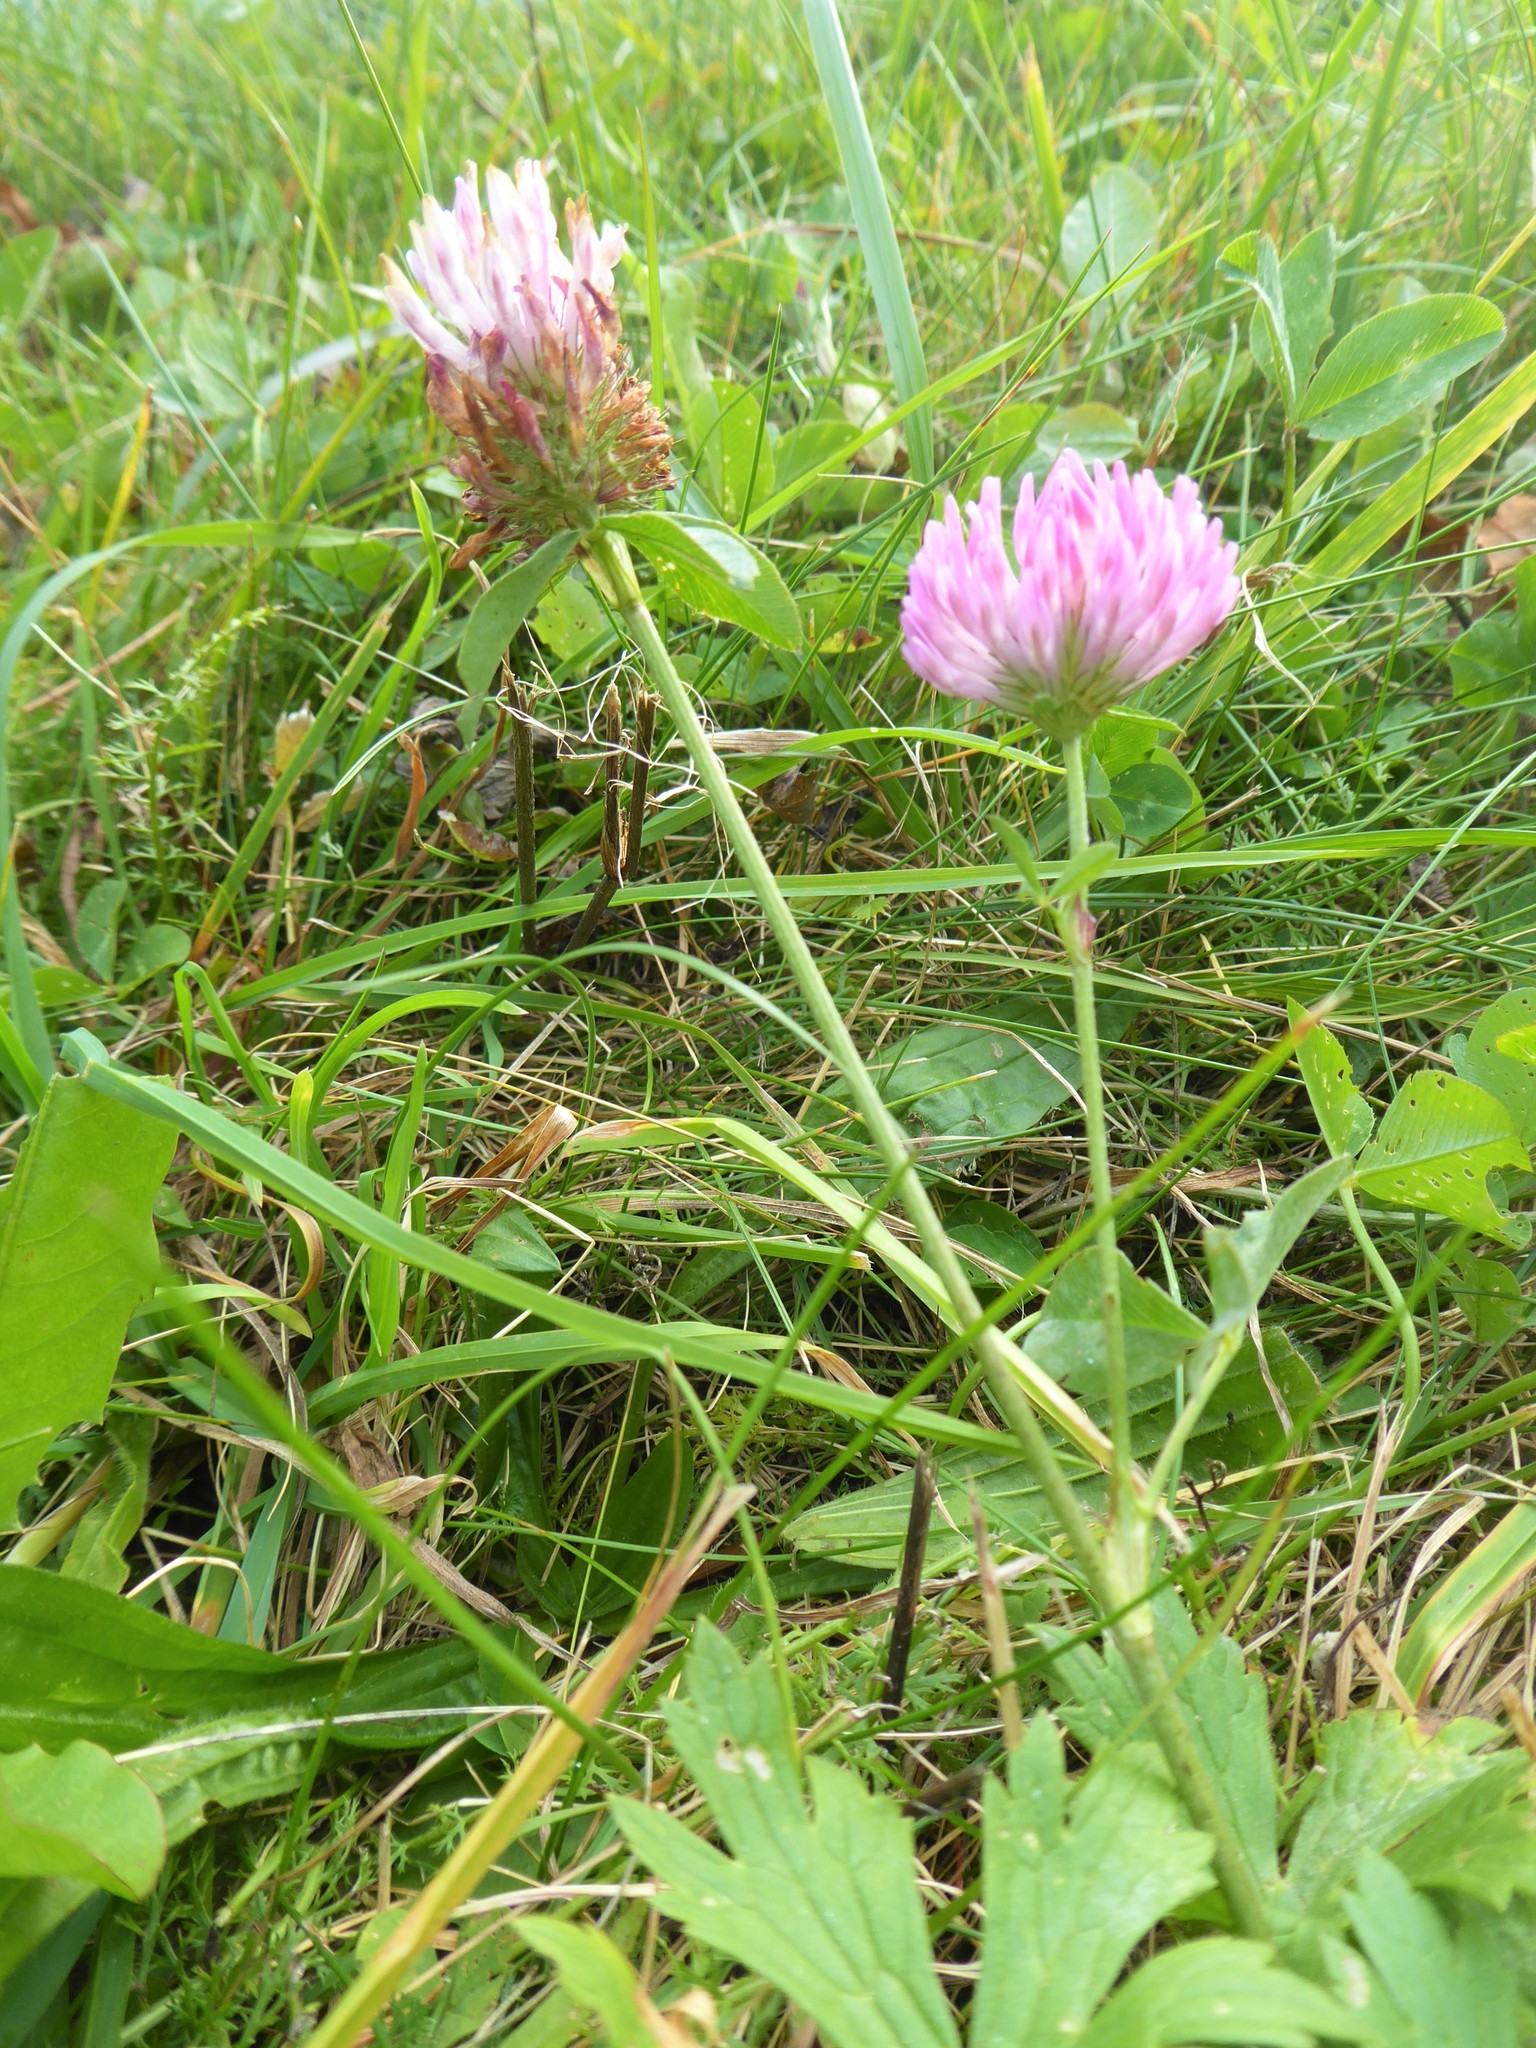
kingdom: Plantae
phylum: Tracheophyta
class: Magnoliopsida
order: Fabales
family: Fabaceae
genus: Trifolium
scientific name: Trifolium pratense
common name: Red clover
